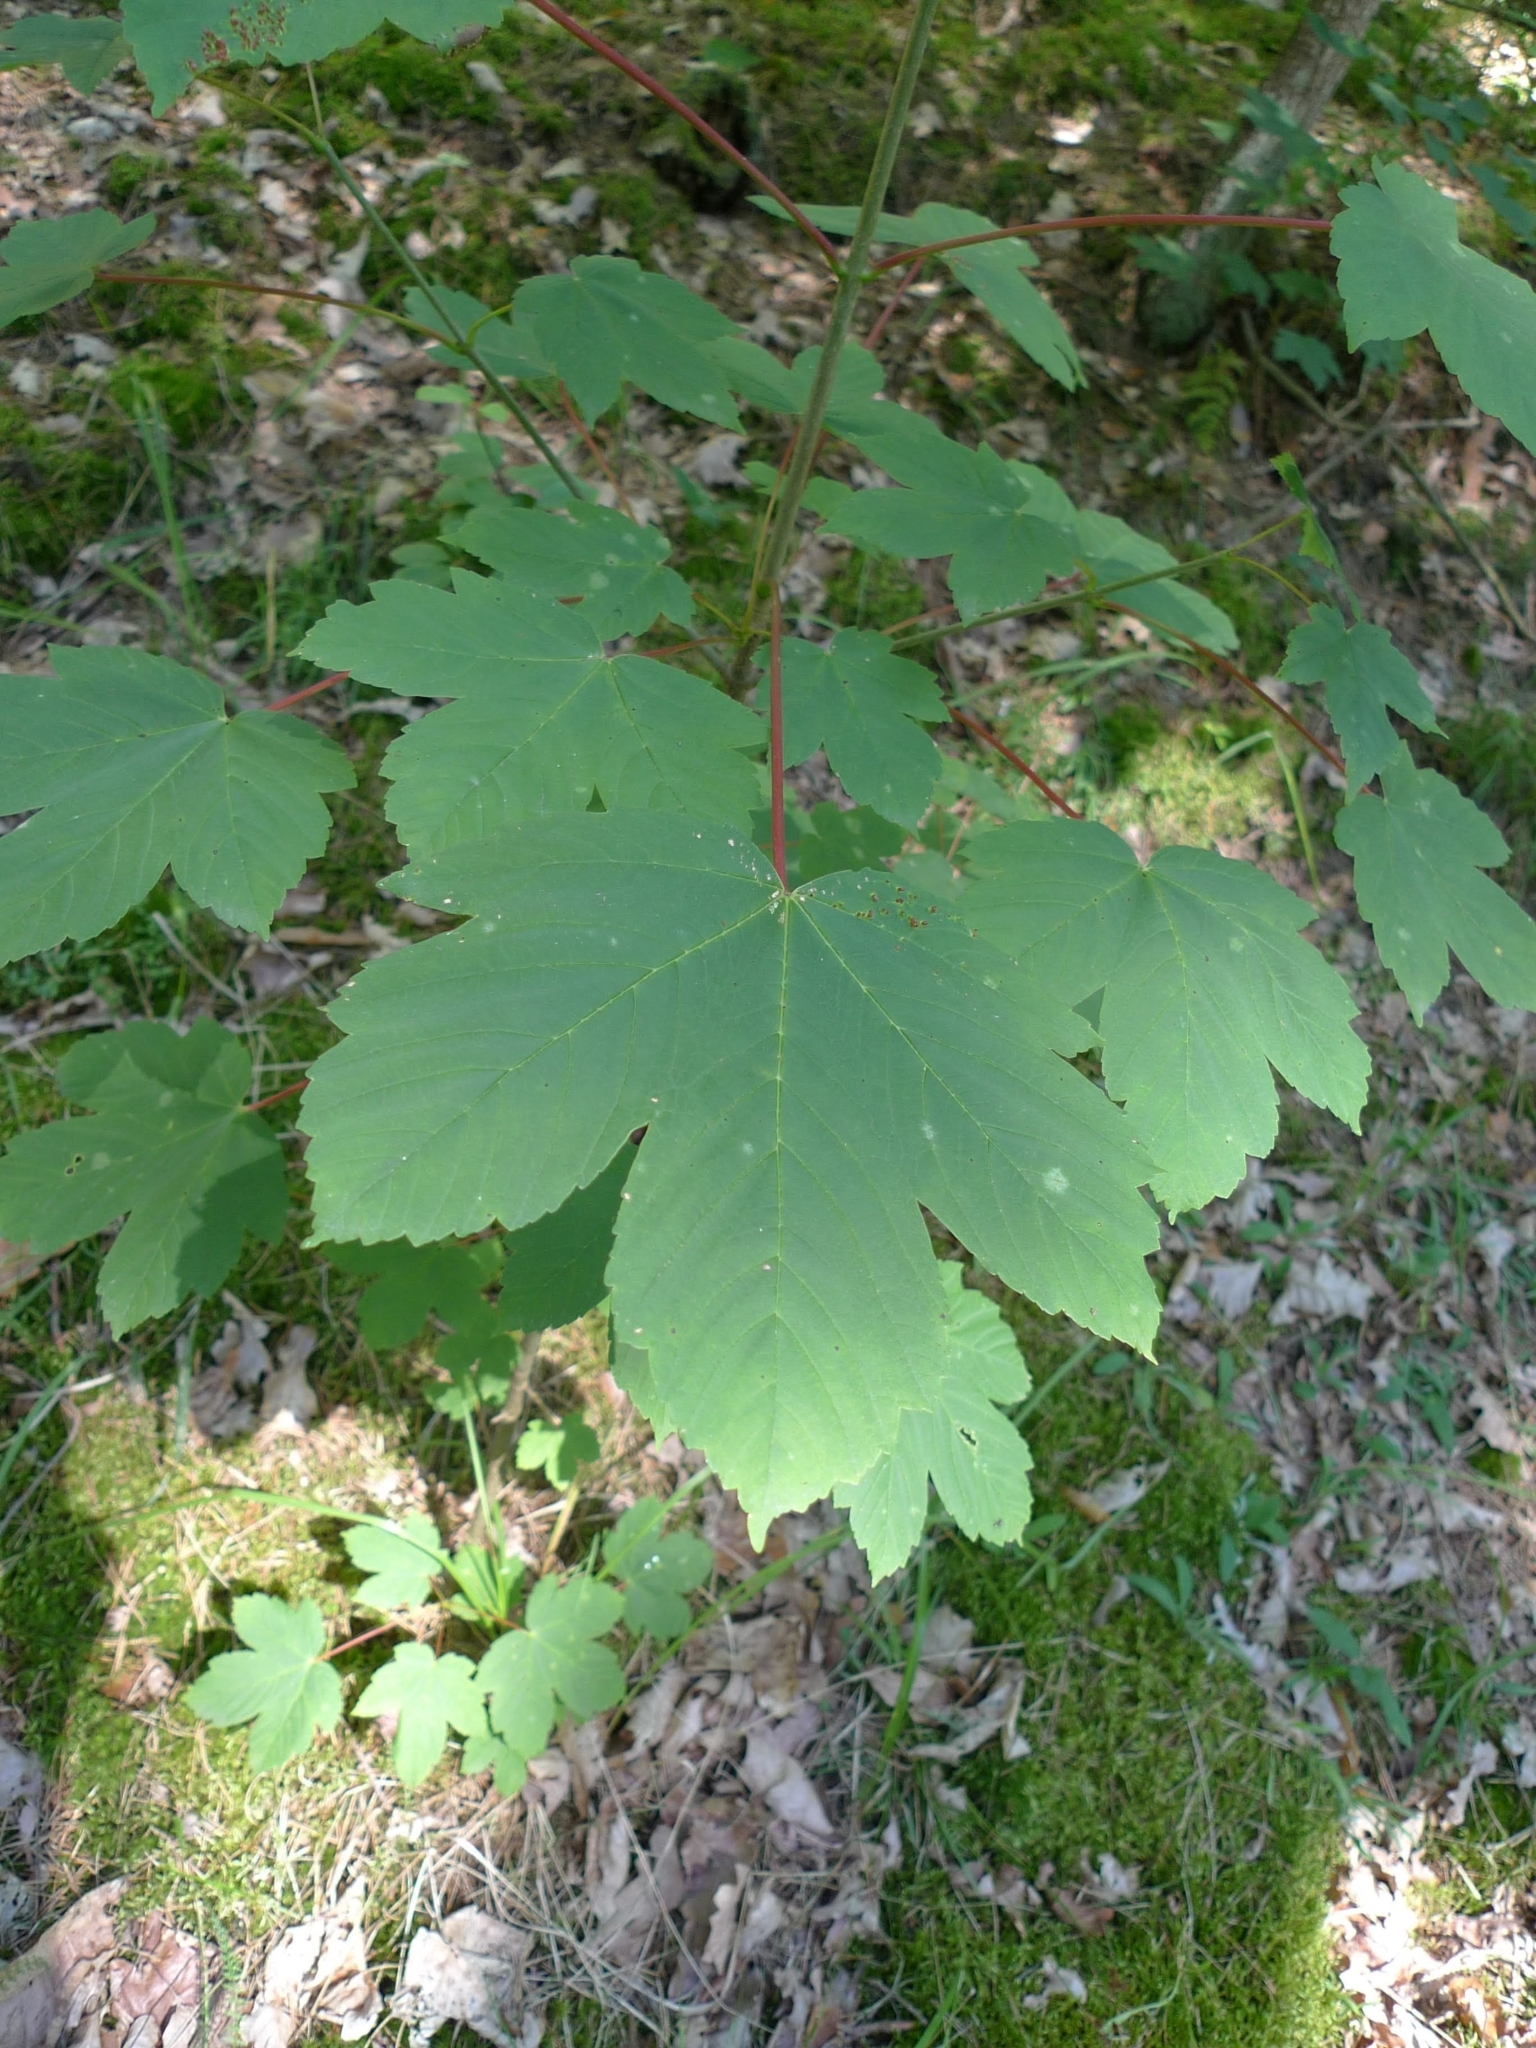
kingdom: Plantae
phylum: Tracheophyta
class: Magnoliopsida
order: Sapindales
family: Sapindaceae
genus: Acer
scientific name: Acer pseudoplatanus
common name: Sycamore
